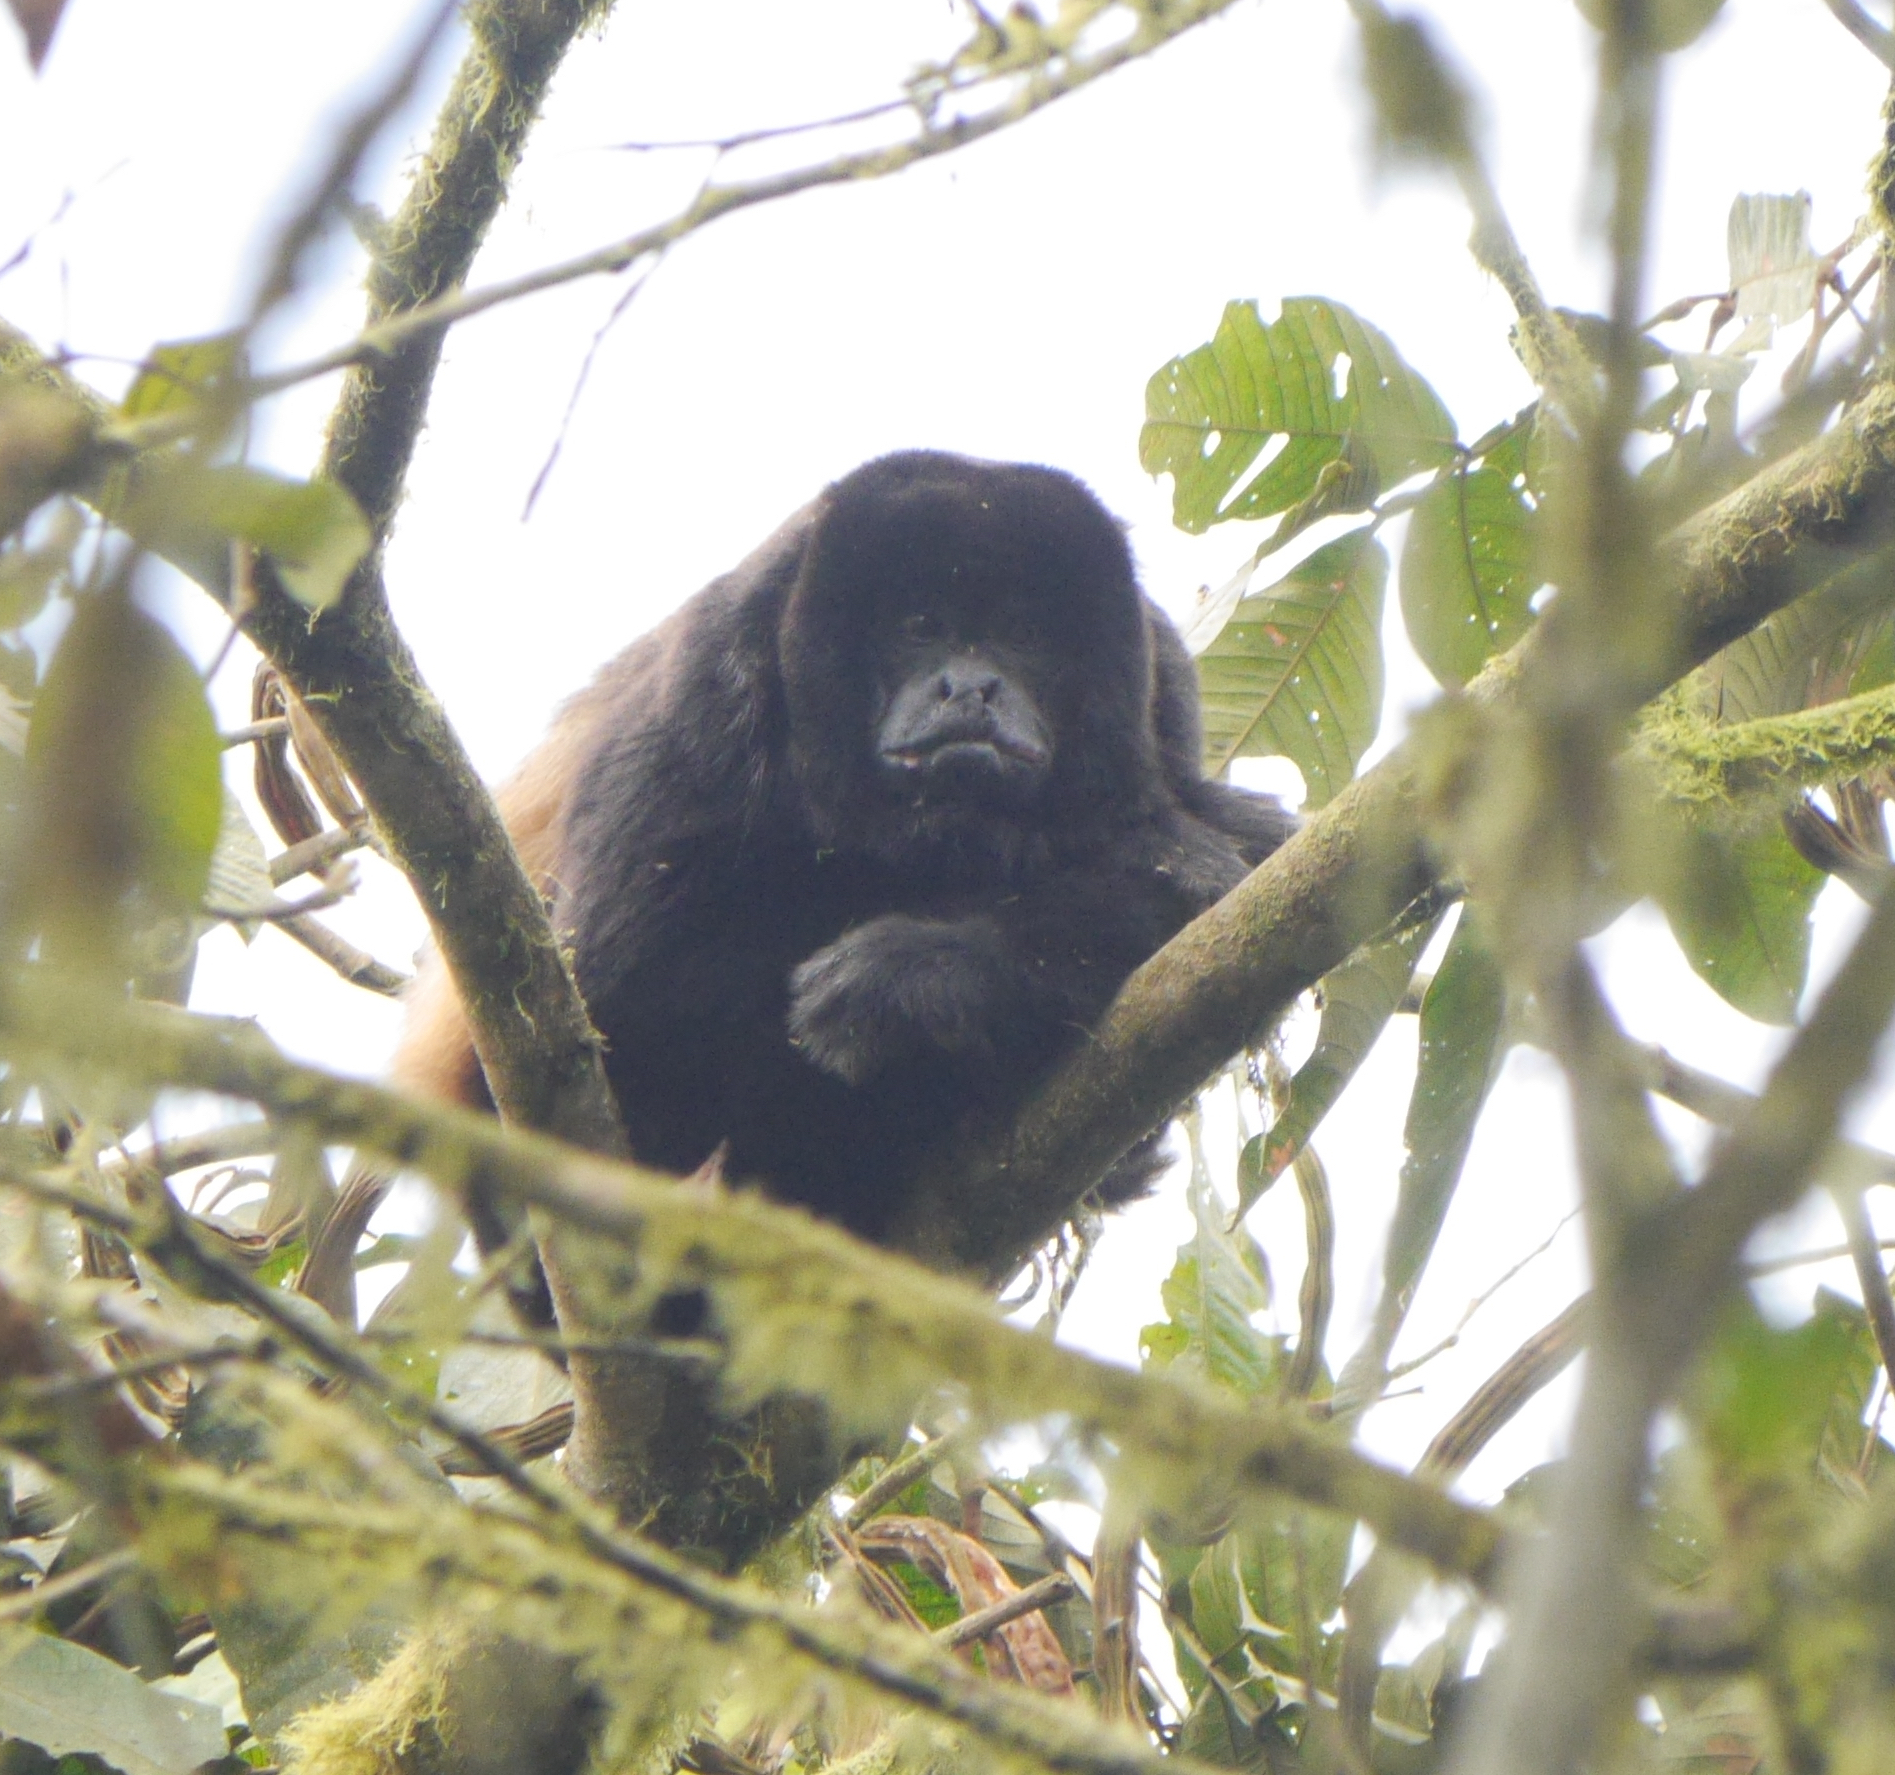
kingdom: Animalia
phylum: Chordata
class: Mammalia
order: Primates
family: Atelidae
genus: Alouatta
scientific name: Alouatta palliata
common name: Mantled howler
